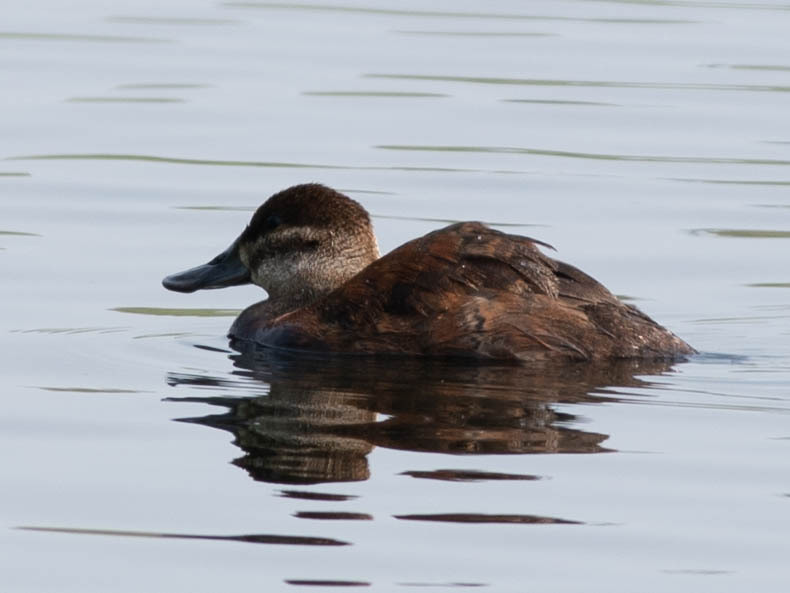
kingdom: Animalia
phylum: Chordata
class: Aves
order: Anseriformes
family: Anatidae
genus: Oxyura
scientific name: Oxyura jamaicensis
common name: Ruddy duck
